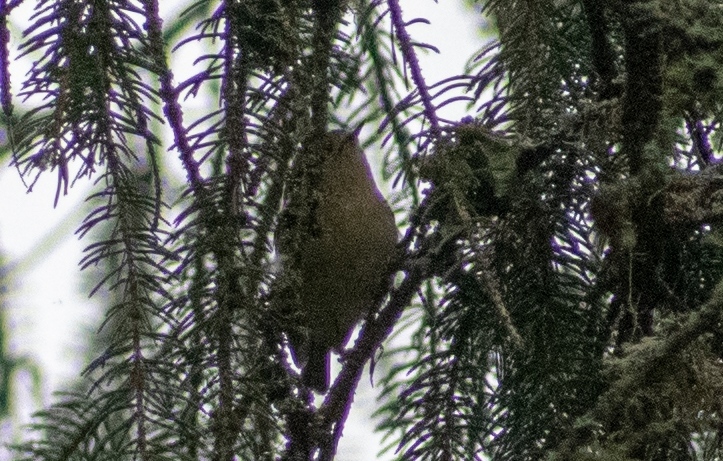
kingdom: Animalia
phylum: Chordata
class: Aves
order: Passeriformes
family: Regulidae
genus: Regulus
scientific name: Regulus regulus
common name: Goldcrest
